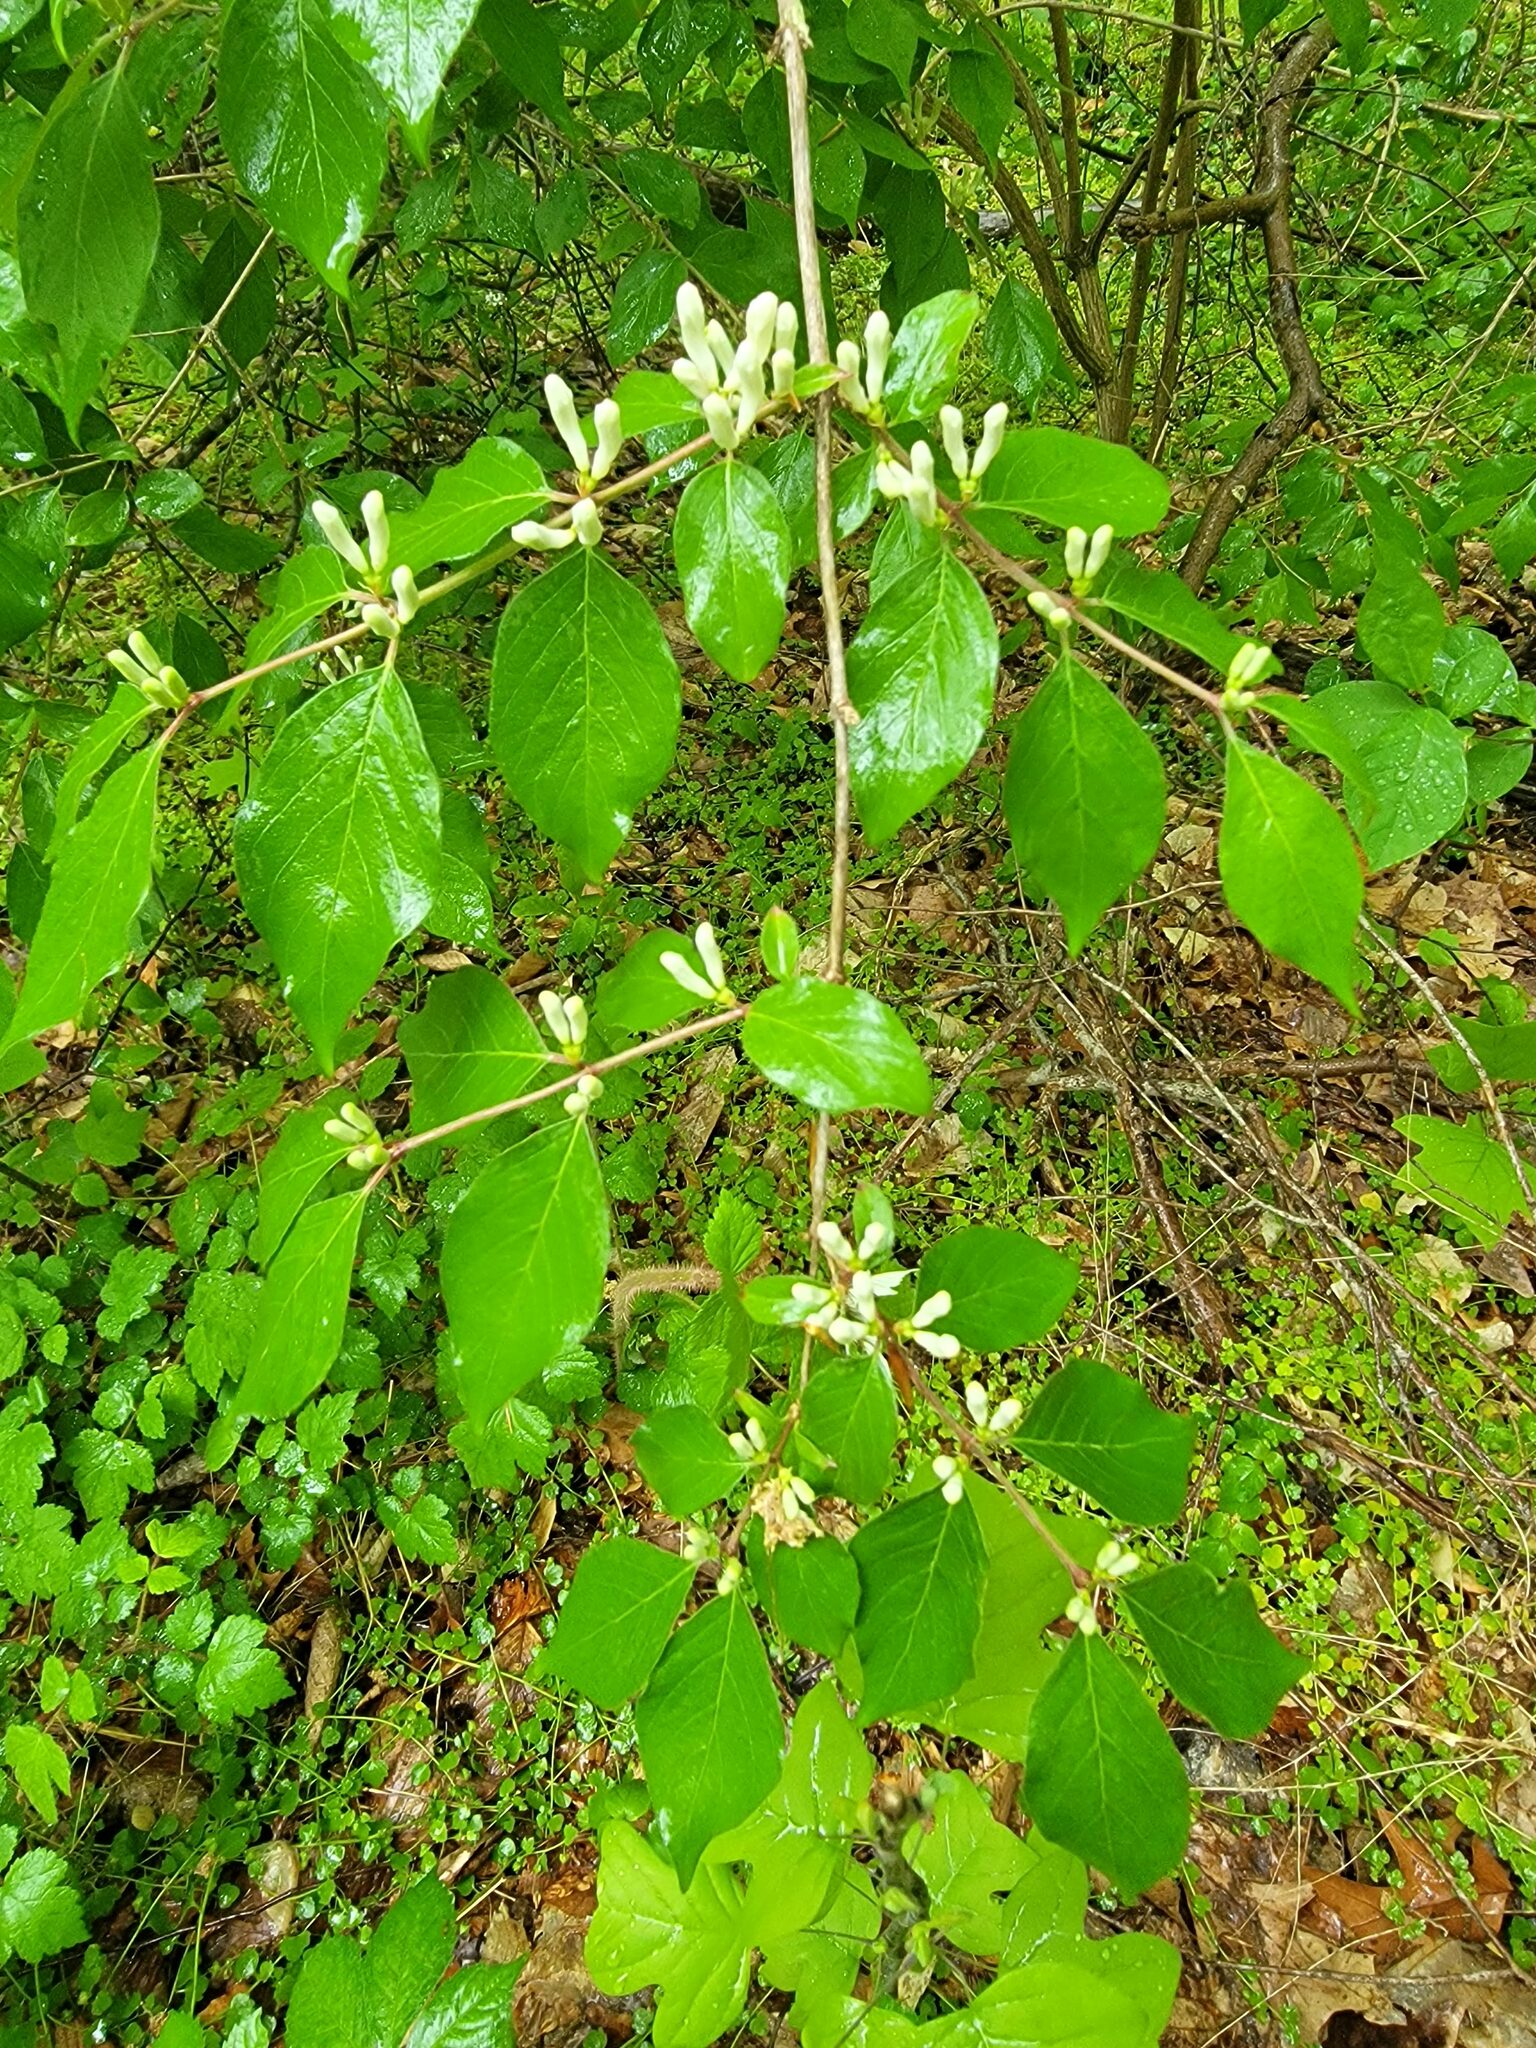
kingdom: Plantae
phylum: Tracheophyta
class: Magnoliopsida
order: Dipsacales
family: Caprifoliaceae
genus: Lonicera
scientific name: Lonicera maackii
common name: Amur honeysuckle
